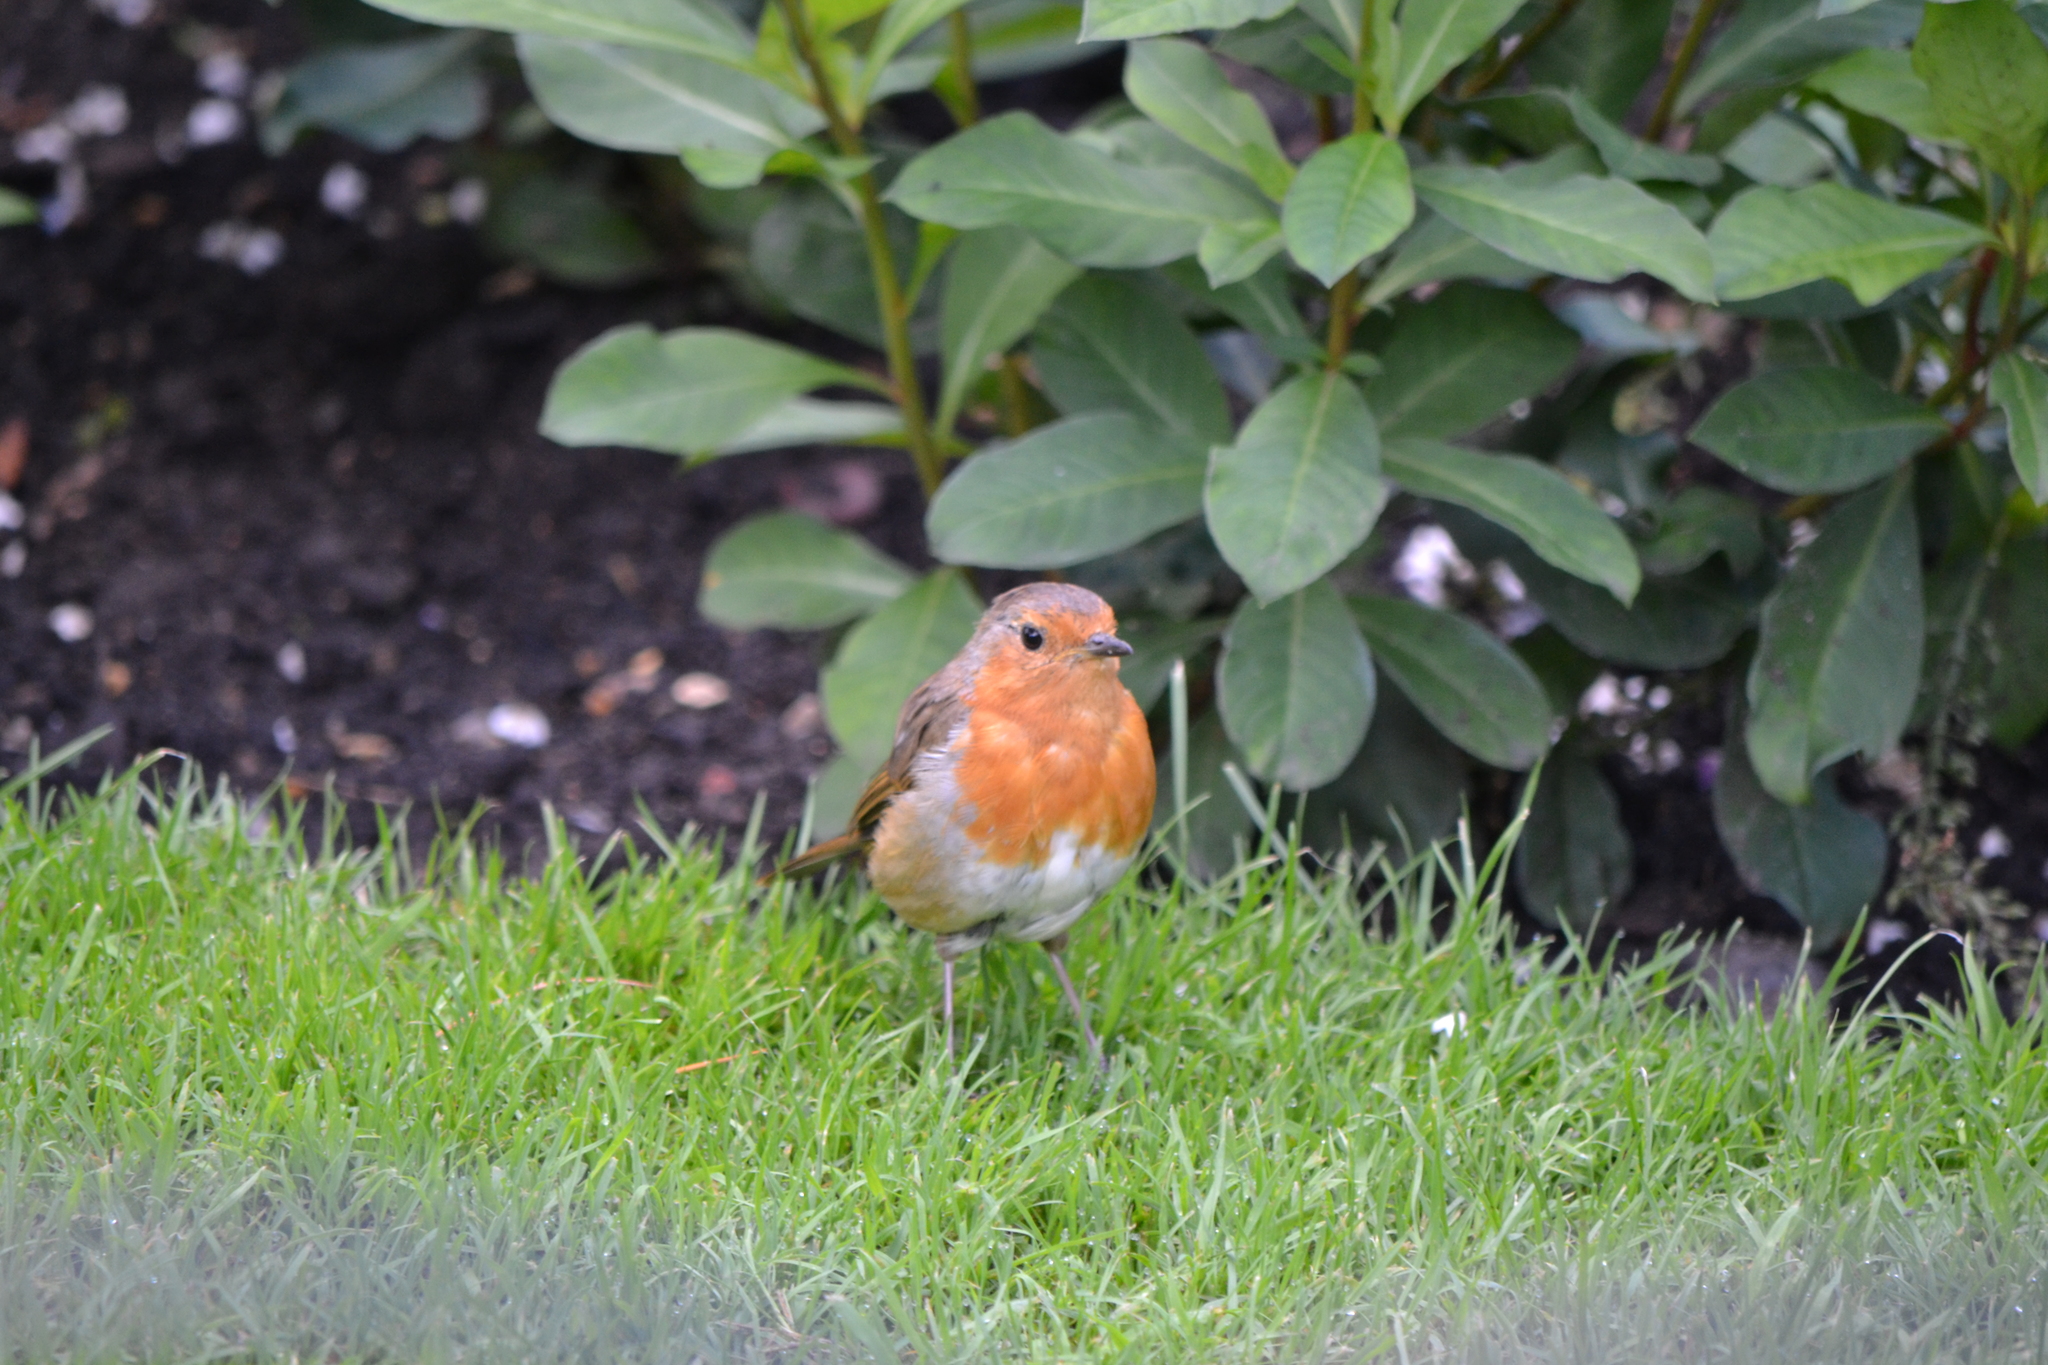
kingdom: Animalia
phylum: Chordata
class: Aves
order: Passeriformes
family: Muscicapidae
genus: Erithacus
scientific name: Erithacus rubecula
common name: European robin
